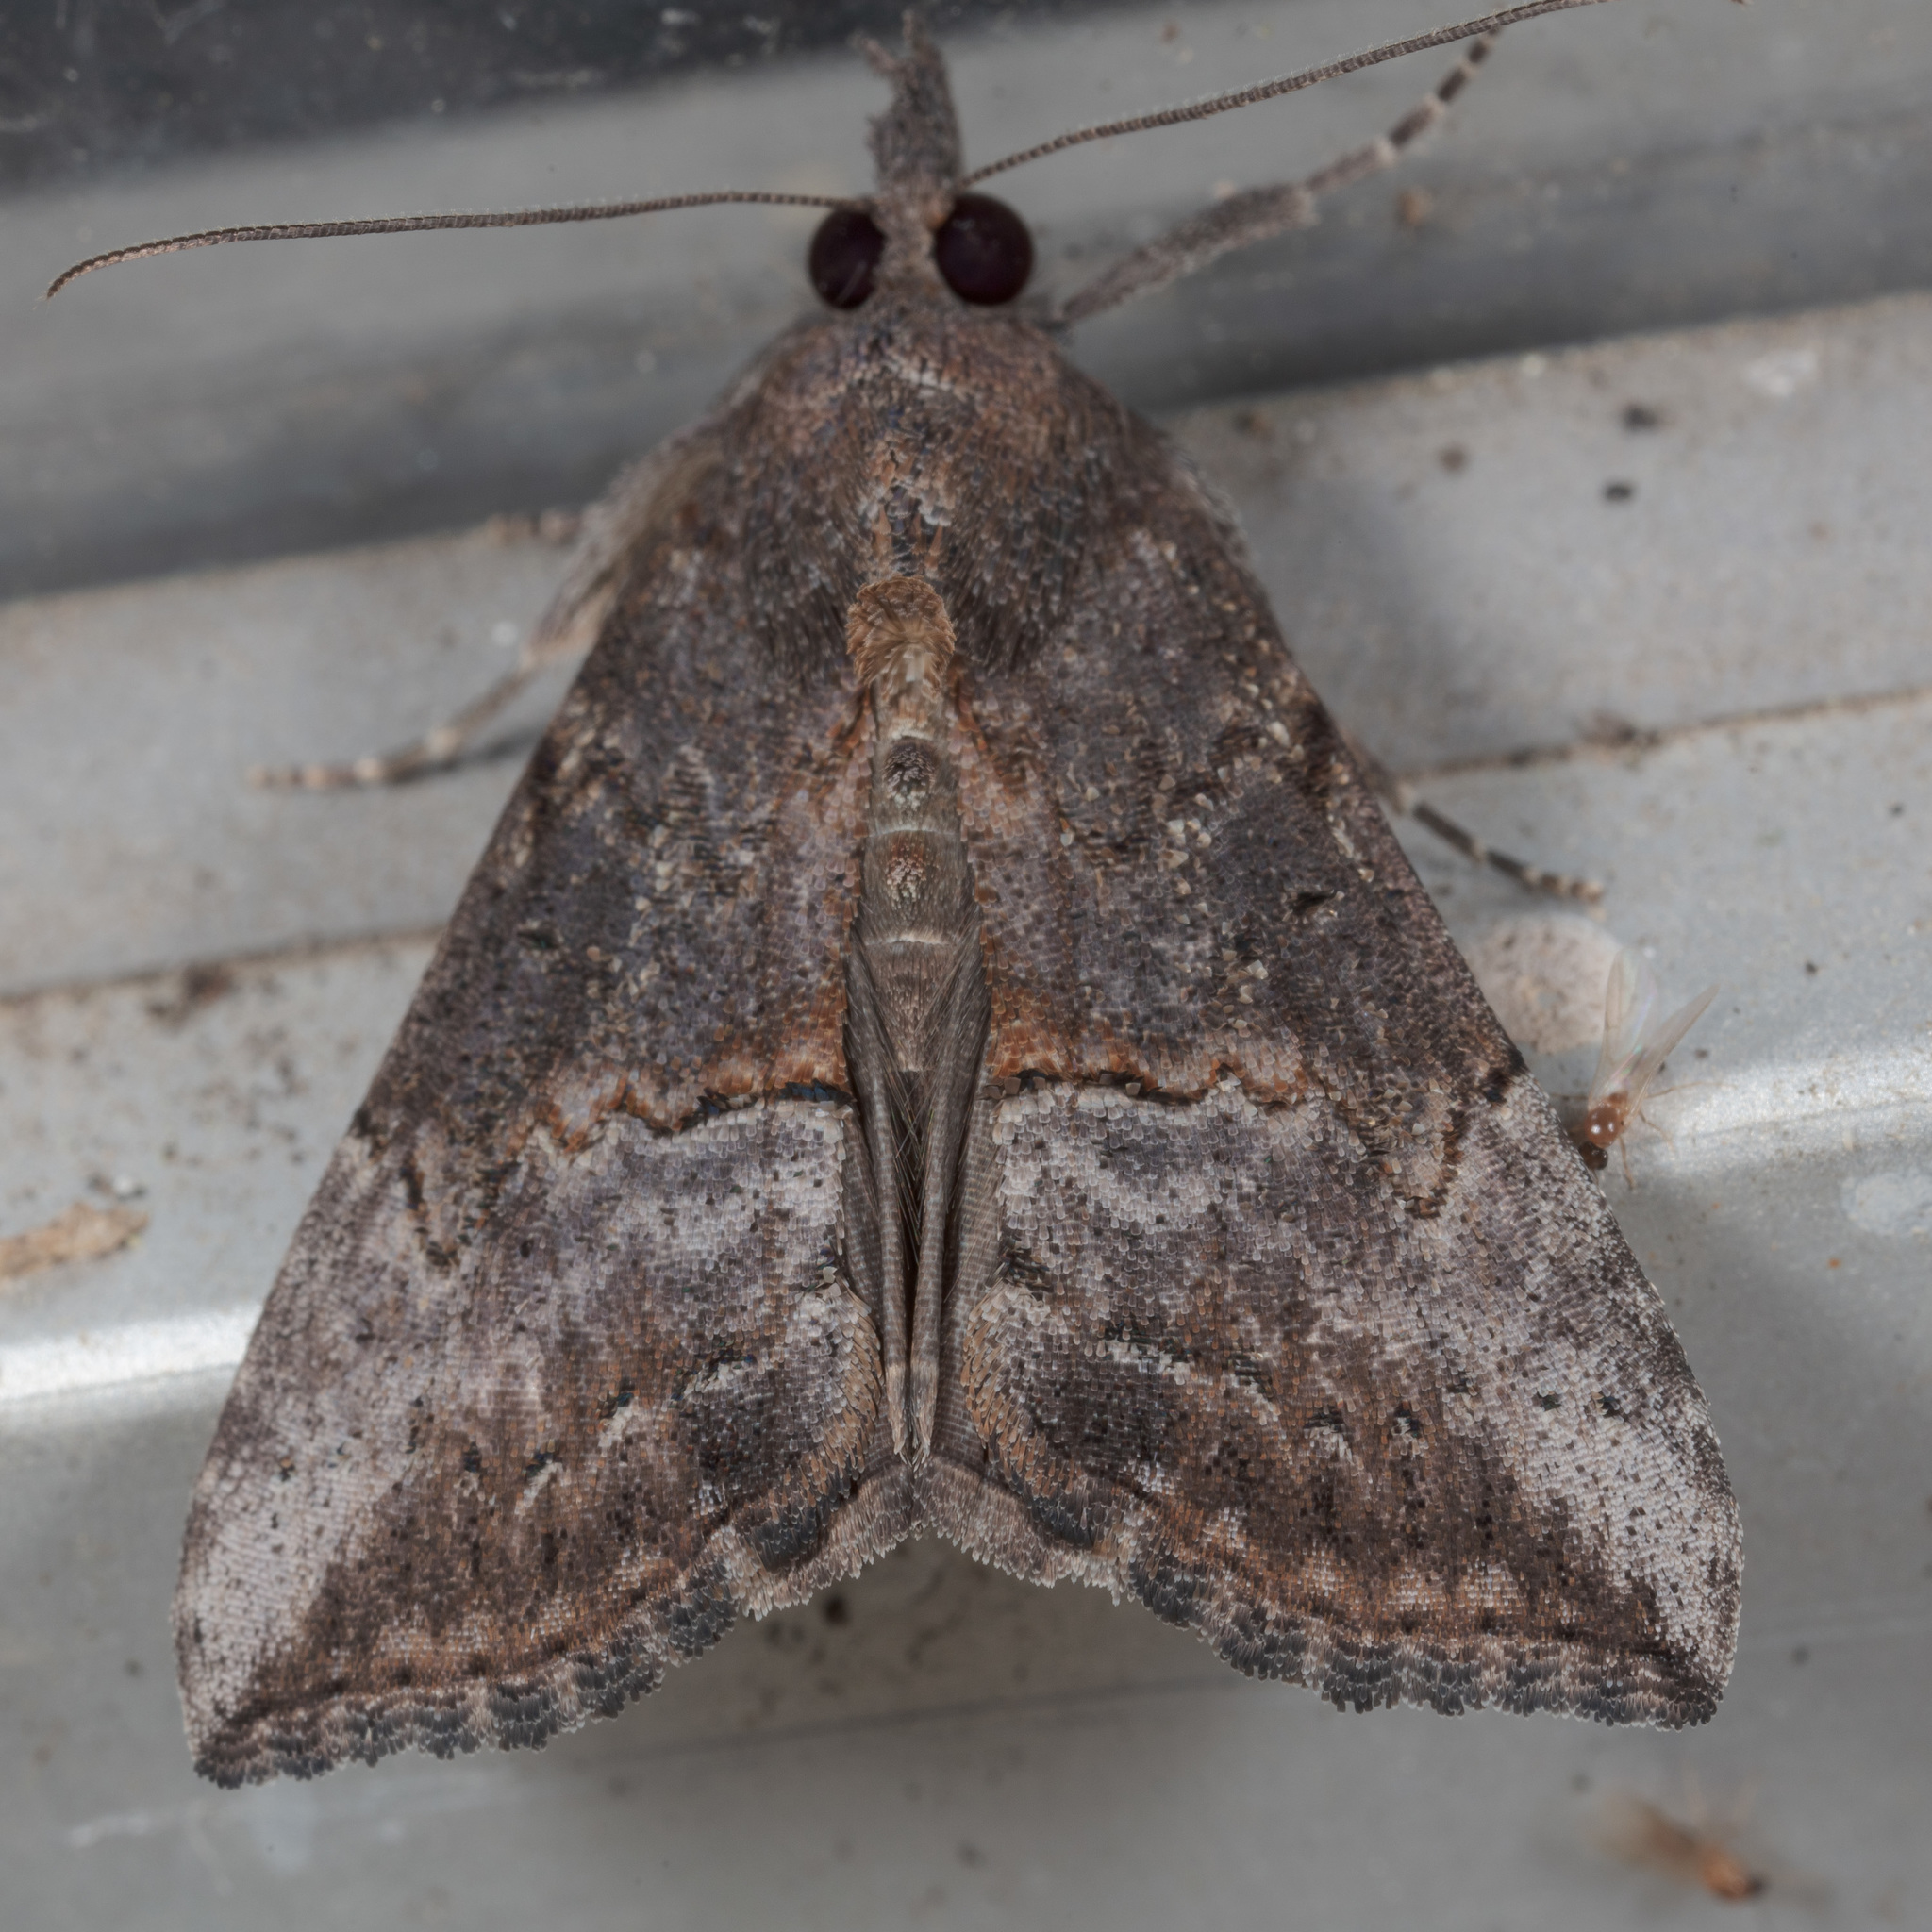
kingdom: Animalia
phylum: Arthropoda
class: Insecta
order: Lepidoptera
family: Erebidae
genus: Hypena
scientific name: Hypena scabra
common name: Green cloverworm
